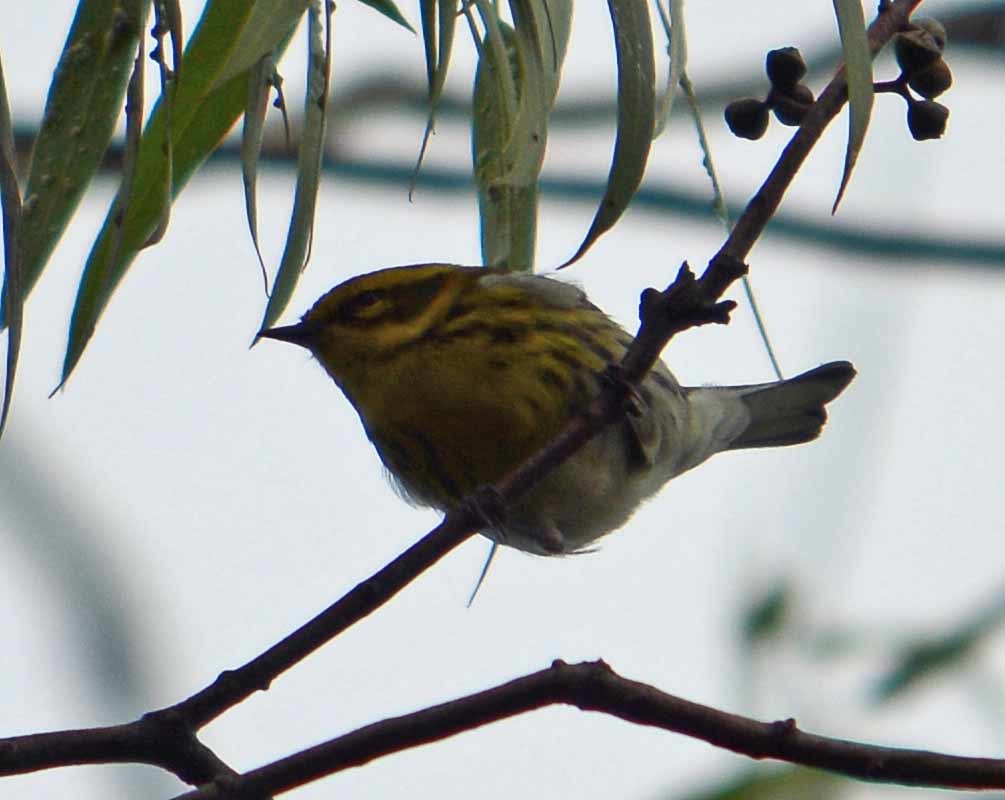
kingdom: Animalia
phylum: Chordata
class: Aves
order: Passeriformes
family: Parulidae
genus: Setophaga
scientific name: Setophaga townsendi
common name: Townsend's warbler
